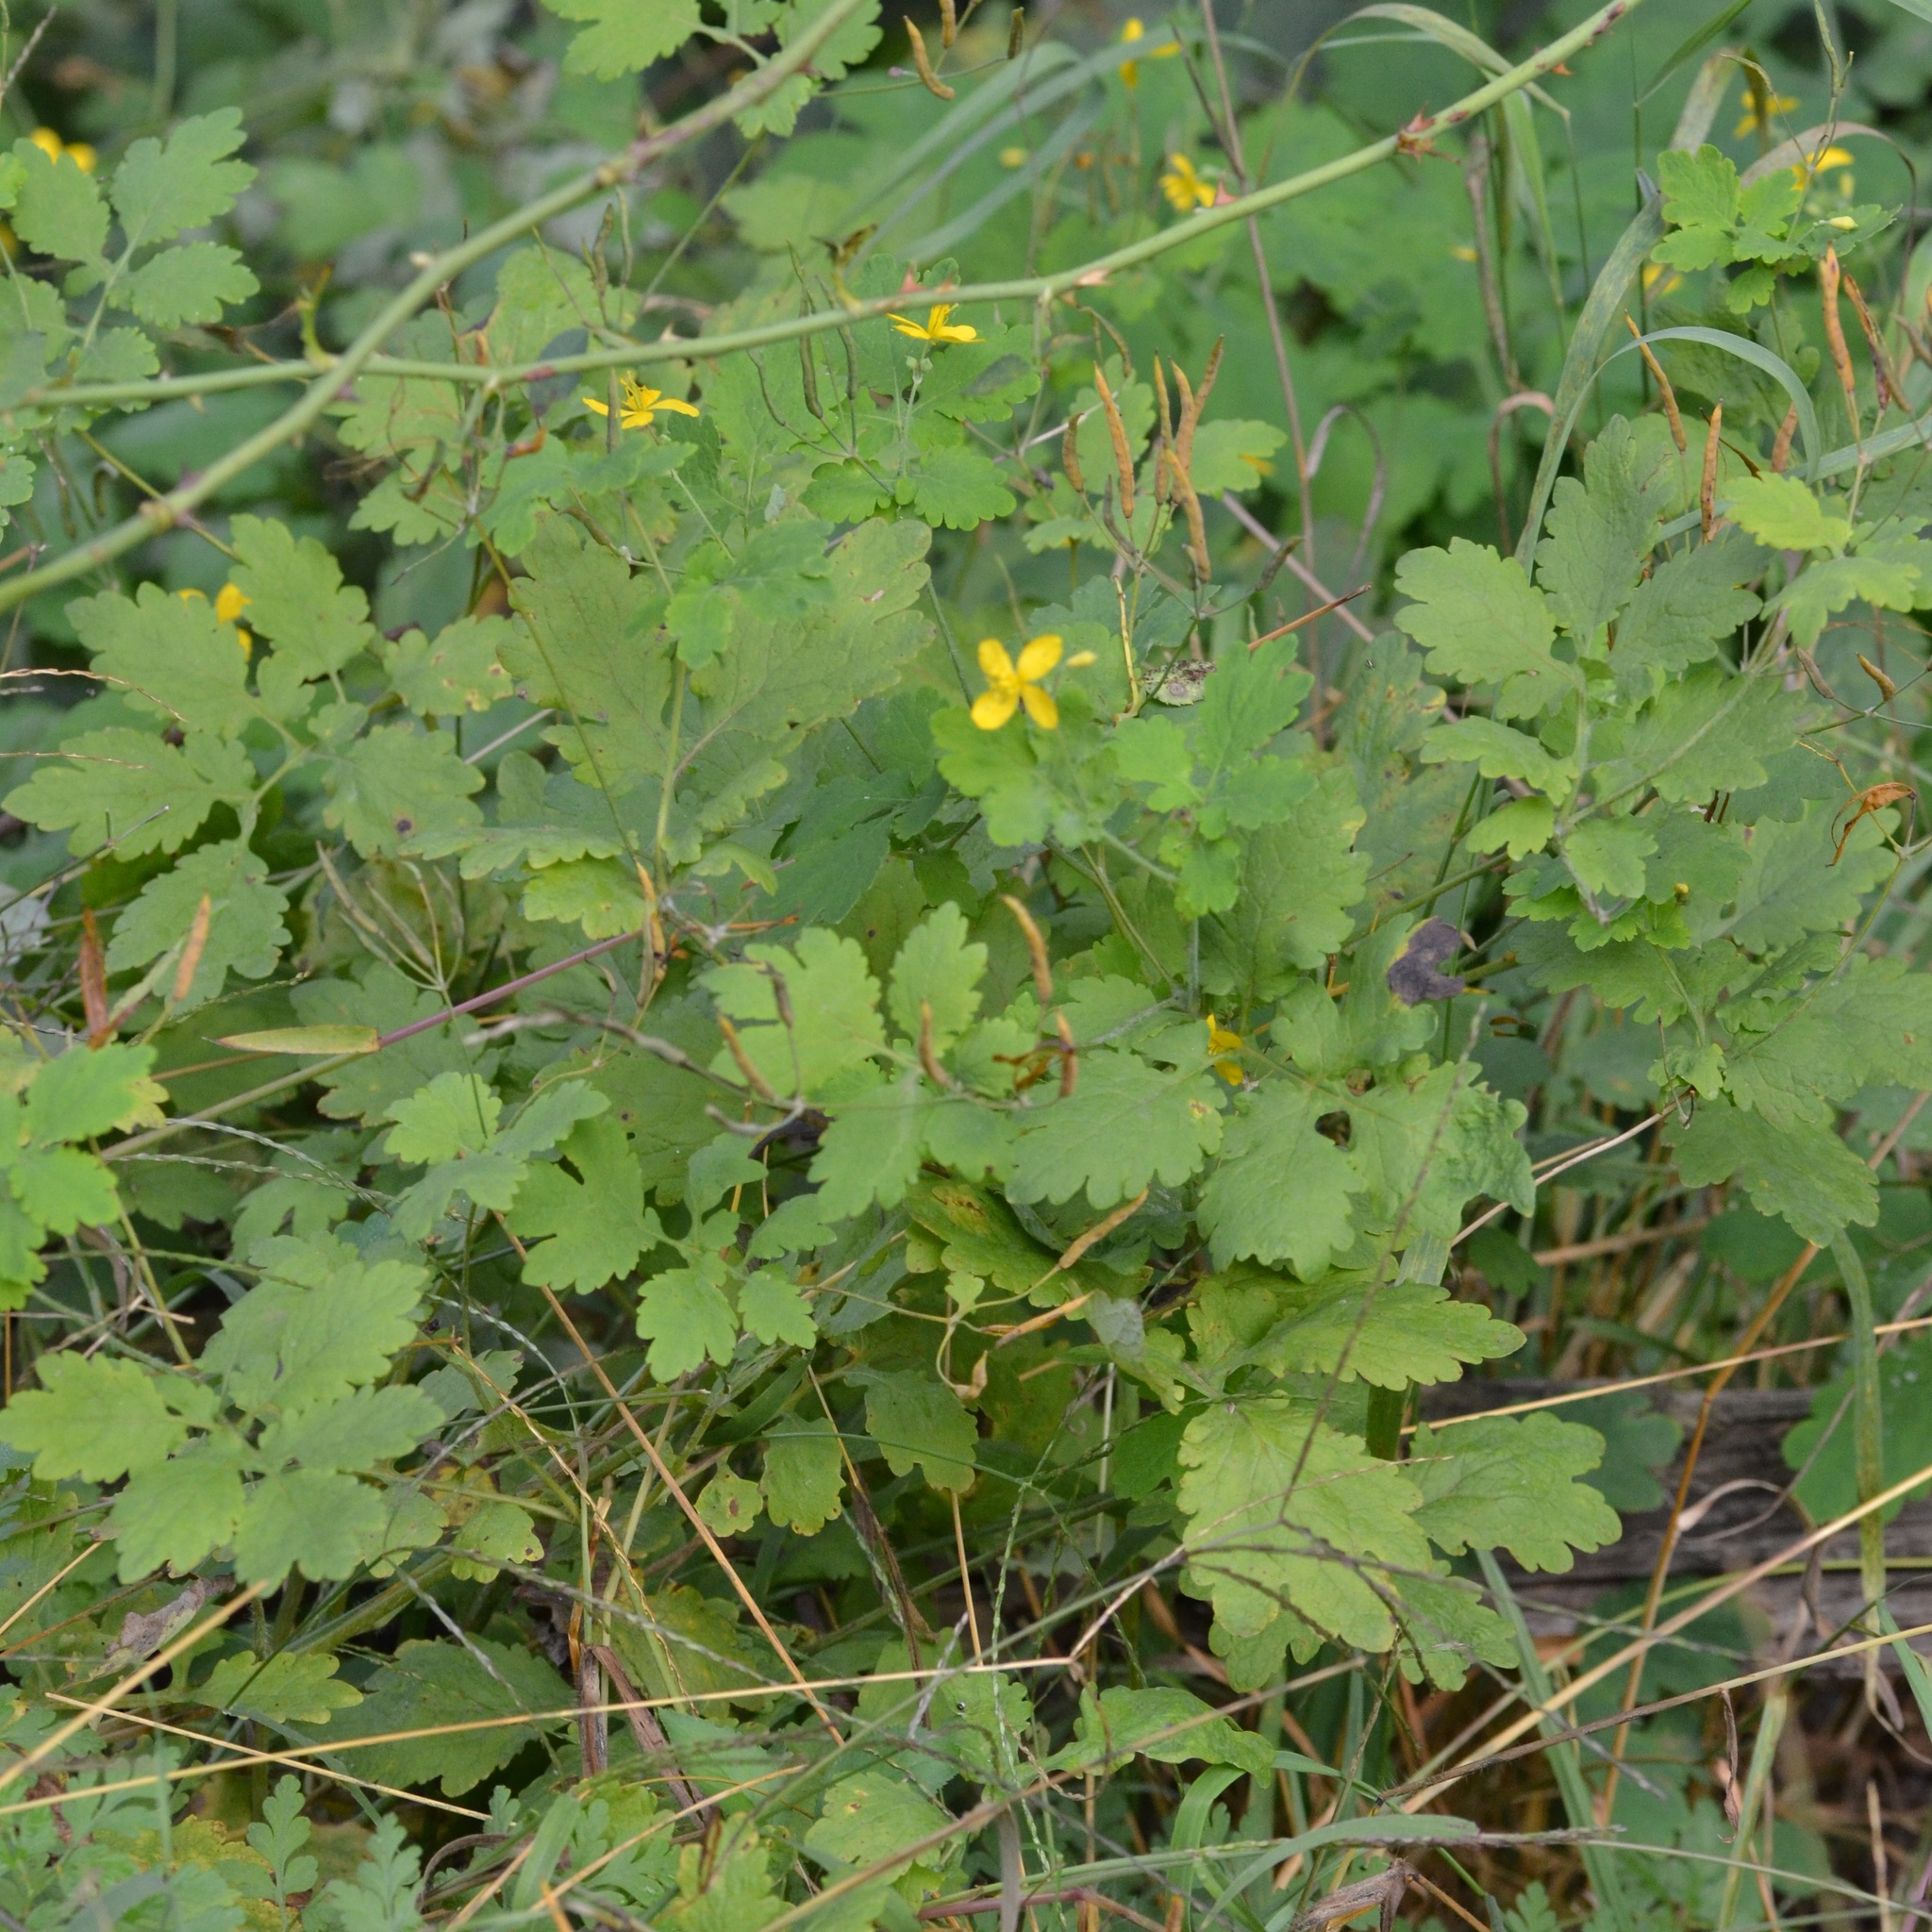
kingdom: Plantae
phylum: Tracheophyta
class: Magnoliopsida
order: Ranunculales
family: Papaveraceae
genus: Chelidonium
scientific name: Chelidonium majus
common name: Greater celandine
